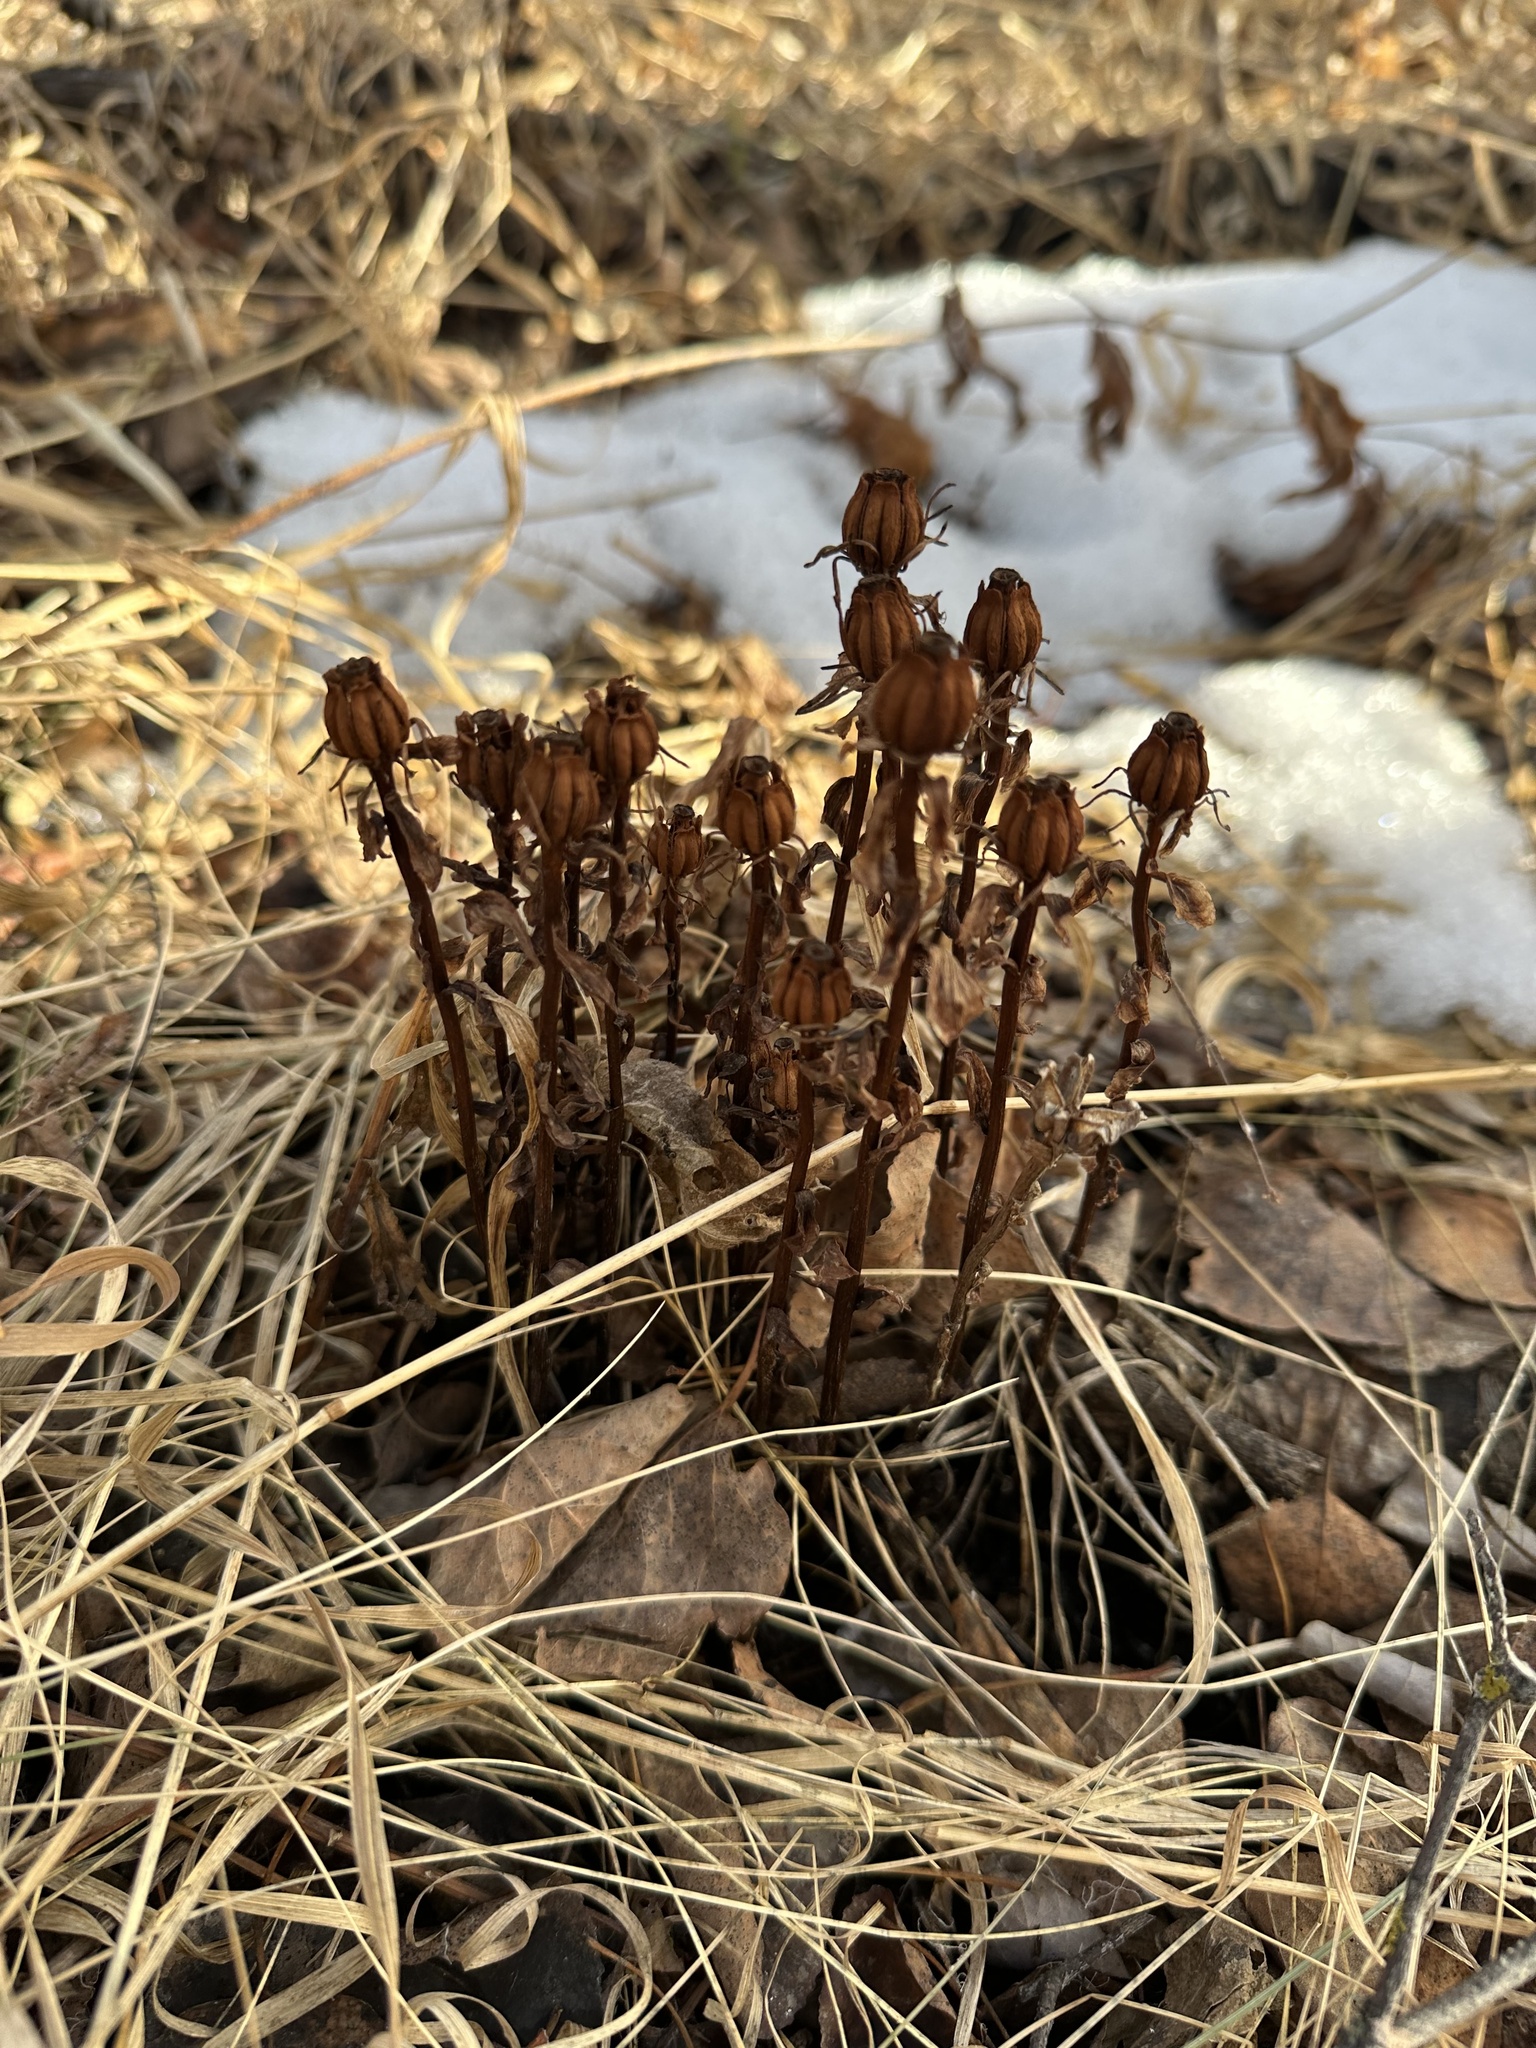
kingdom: Plantae
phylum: Tracheophyta
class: Magnoliopsida
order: Ericales
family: Ericaceae
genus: Monotropa
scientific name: Monotropa uniflora
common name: Convulsion root
